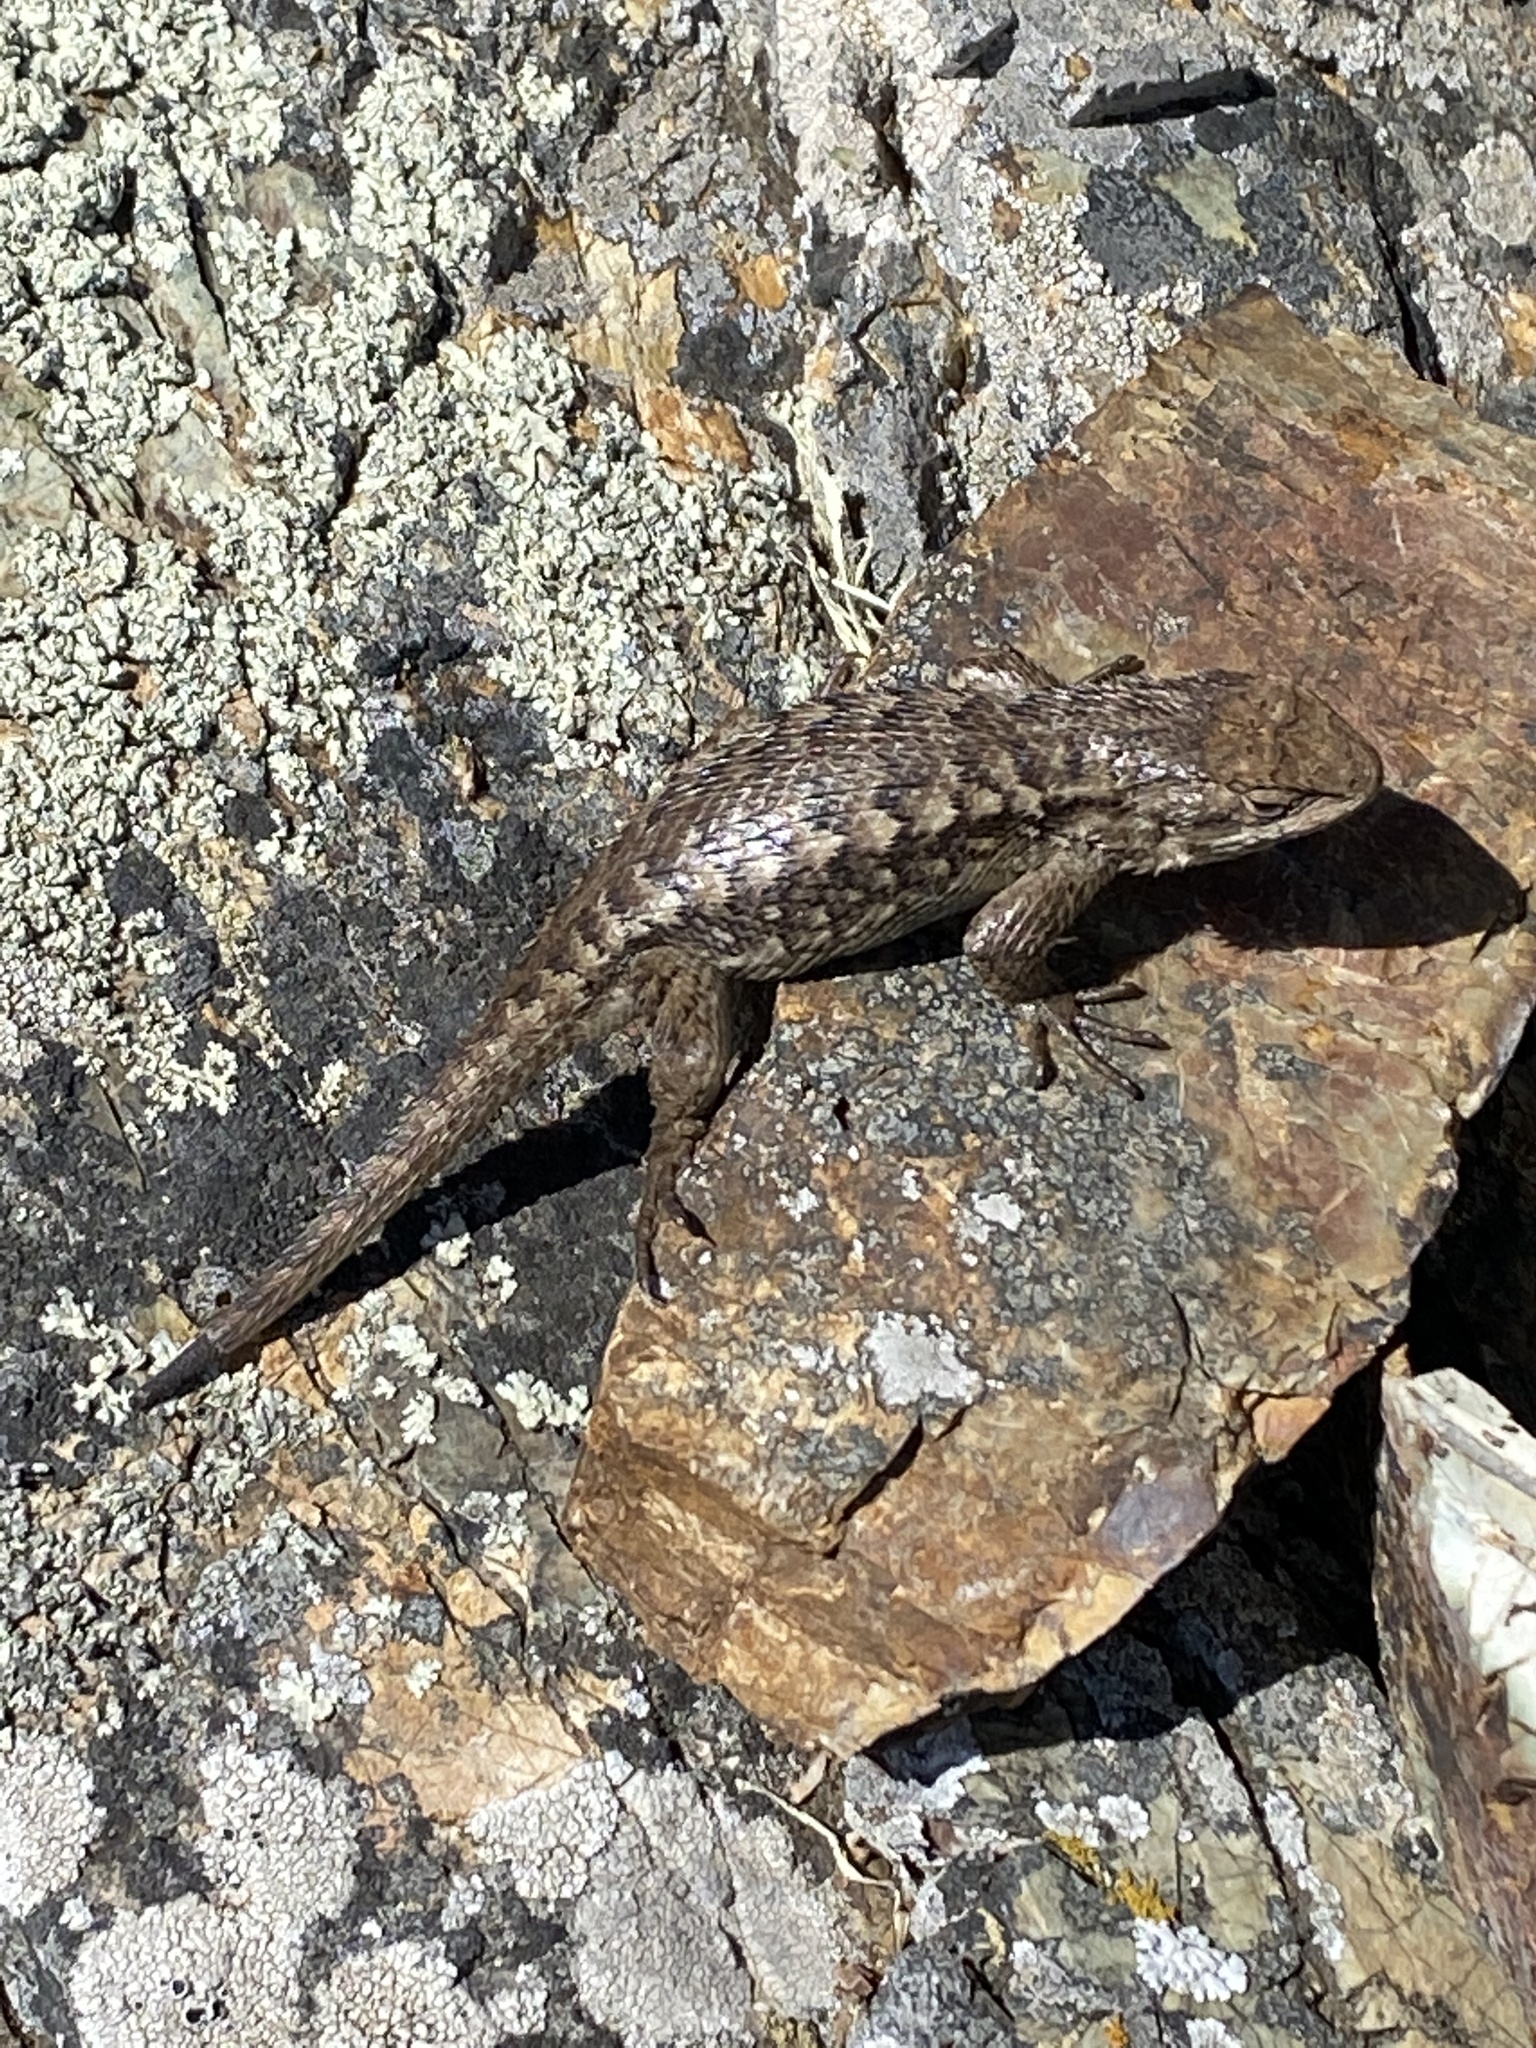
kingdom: Animalia
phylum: Chordata
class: Squamata
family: Phrynosomatidae
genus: Sceloporus
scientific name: Sceloporus occidentalis
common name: Western fence lizard
